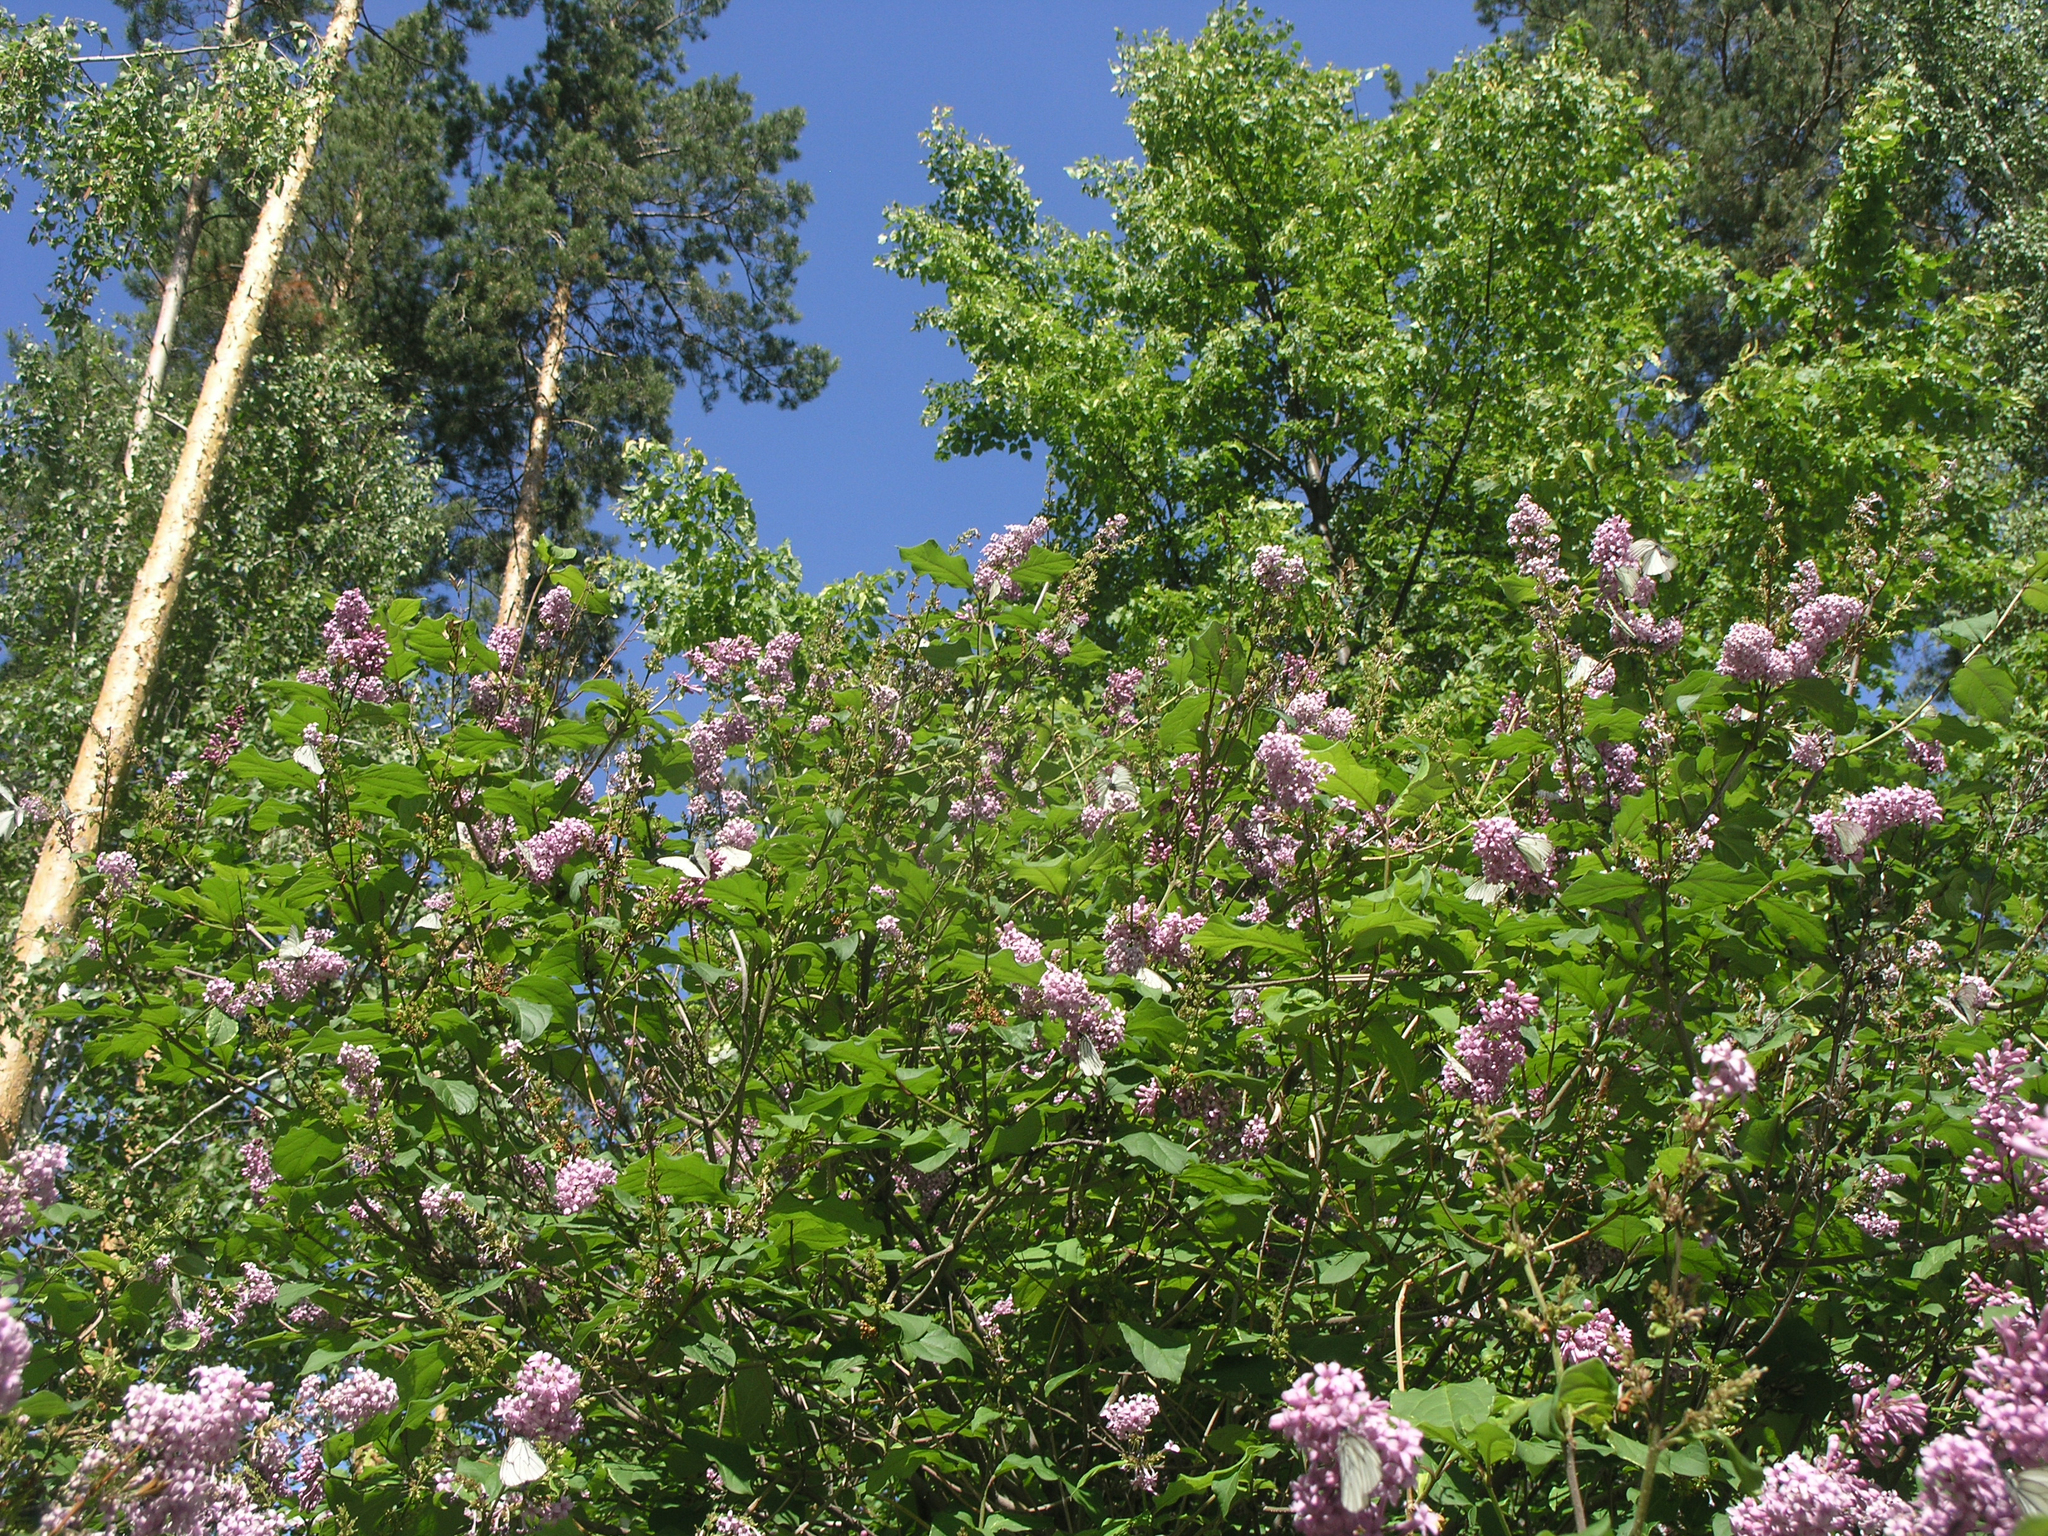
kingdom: Animalia
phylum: Arthropoda
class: Insecta
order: Lepidoptera
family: Pieridae
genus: Aporia
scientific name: Aporia crataegi
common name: Black-veined white
